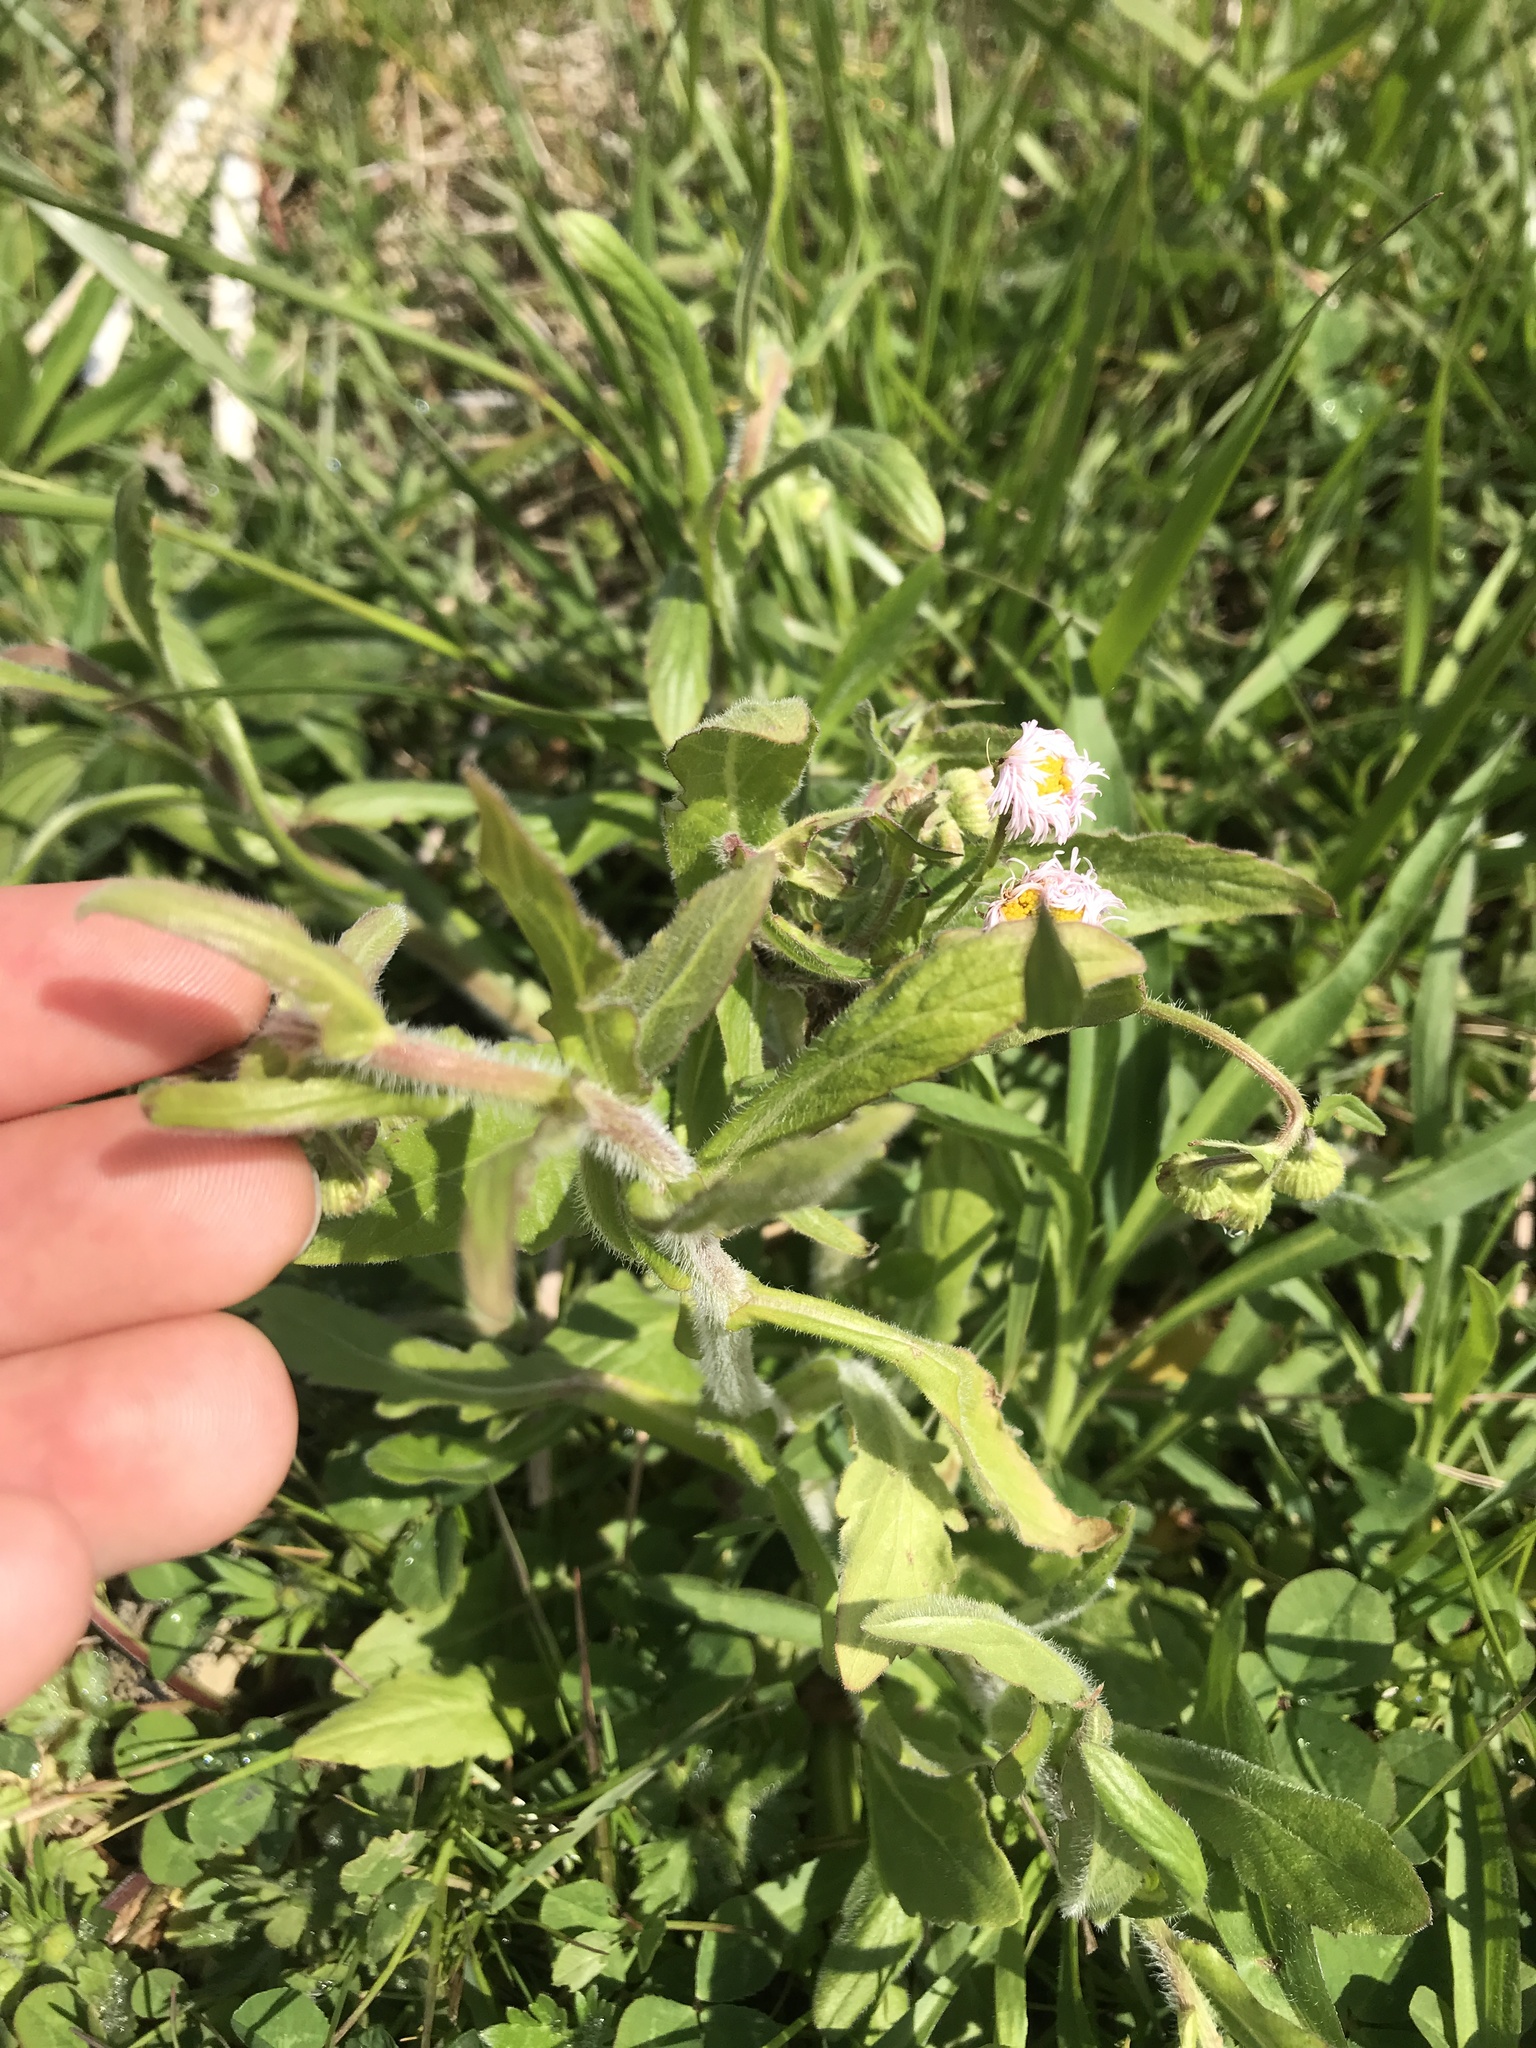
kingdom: Plantae
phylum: Tracheophyta
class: Magnoliopsida
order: Asterales
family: Asteraceae
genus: Erigeron
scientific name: Erigeron philadelphicus
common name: Robin's-plantain
